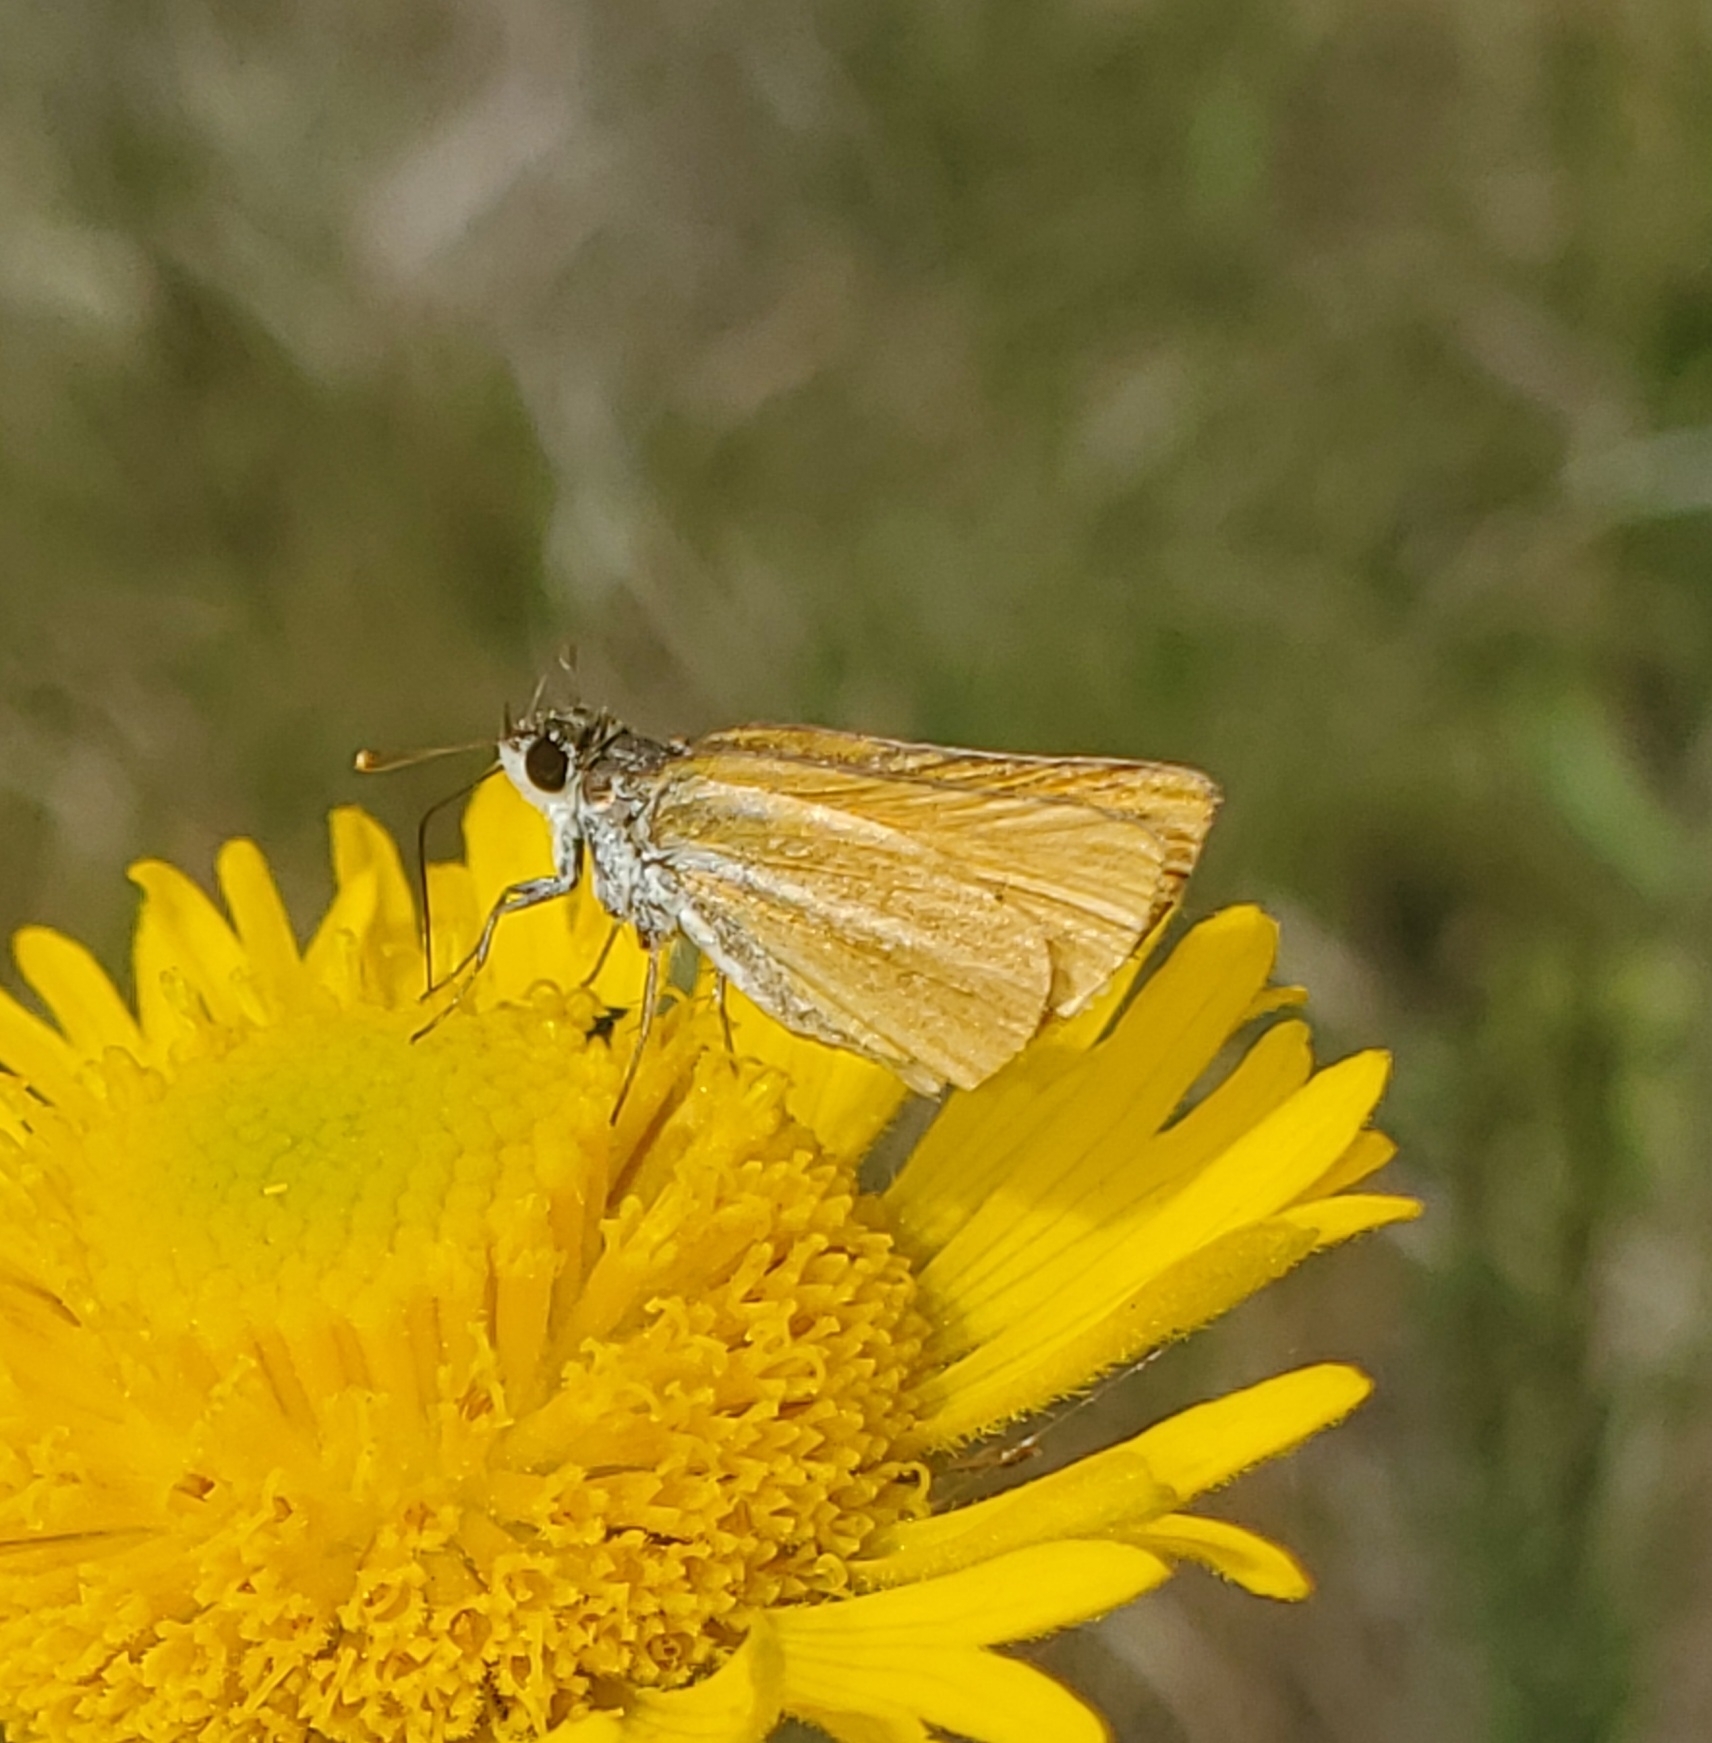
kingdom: Animalia
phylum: Arthropoda
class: Insecta
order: Lepidoptera
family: Hesperiidae
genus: Copaeodes
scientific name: Copaeodes minima
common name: Southern skipperling
